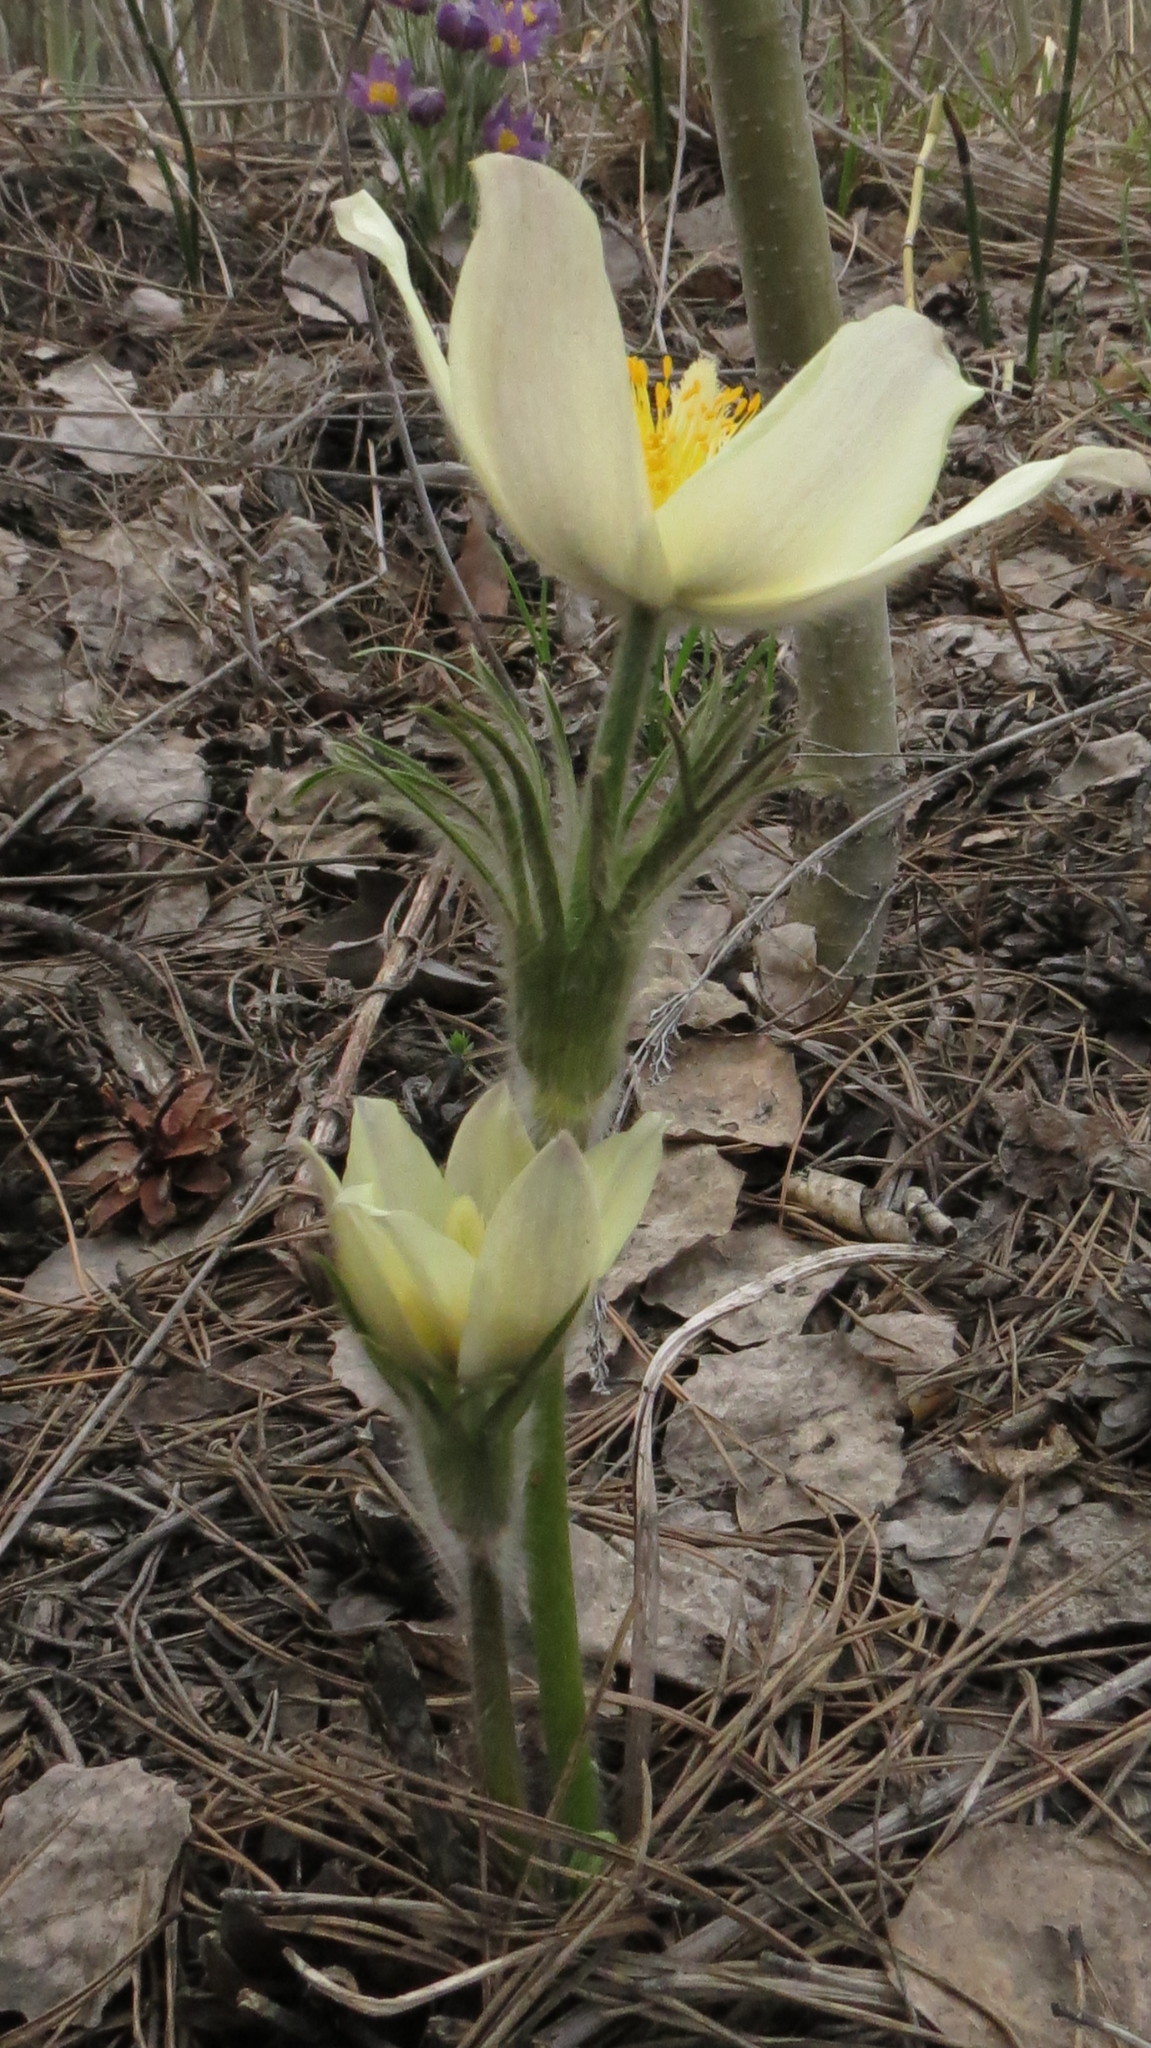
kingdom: Plantae
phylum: Tracheophyta
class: Magnoliopsida
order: Ranunculales
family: Ranunculaceae
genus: Pulsatilla
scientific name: Pulsatilla patens
